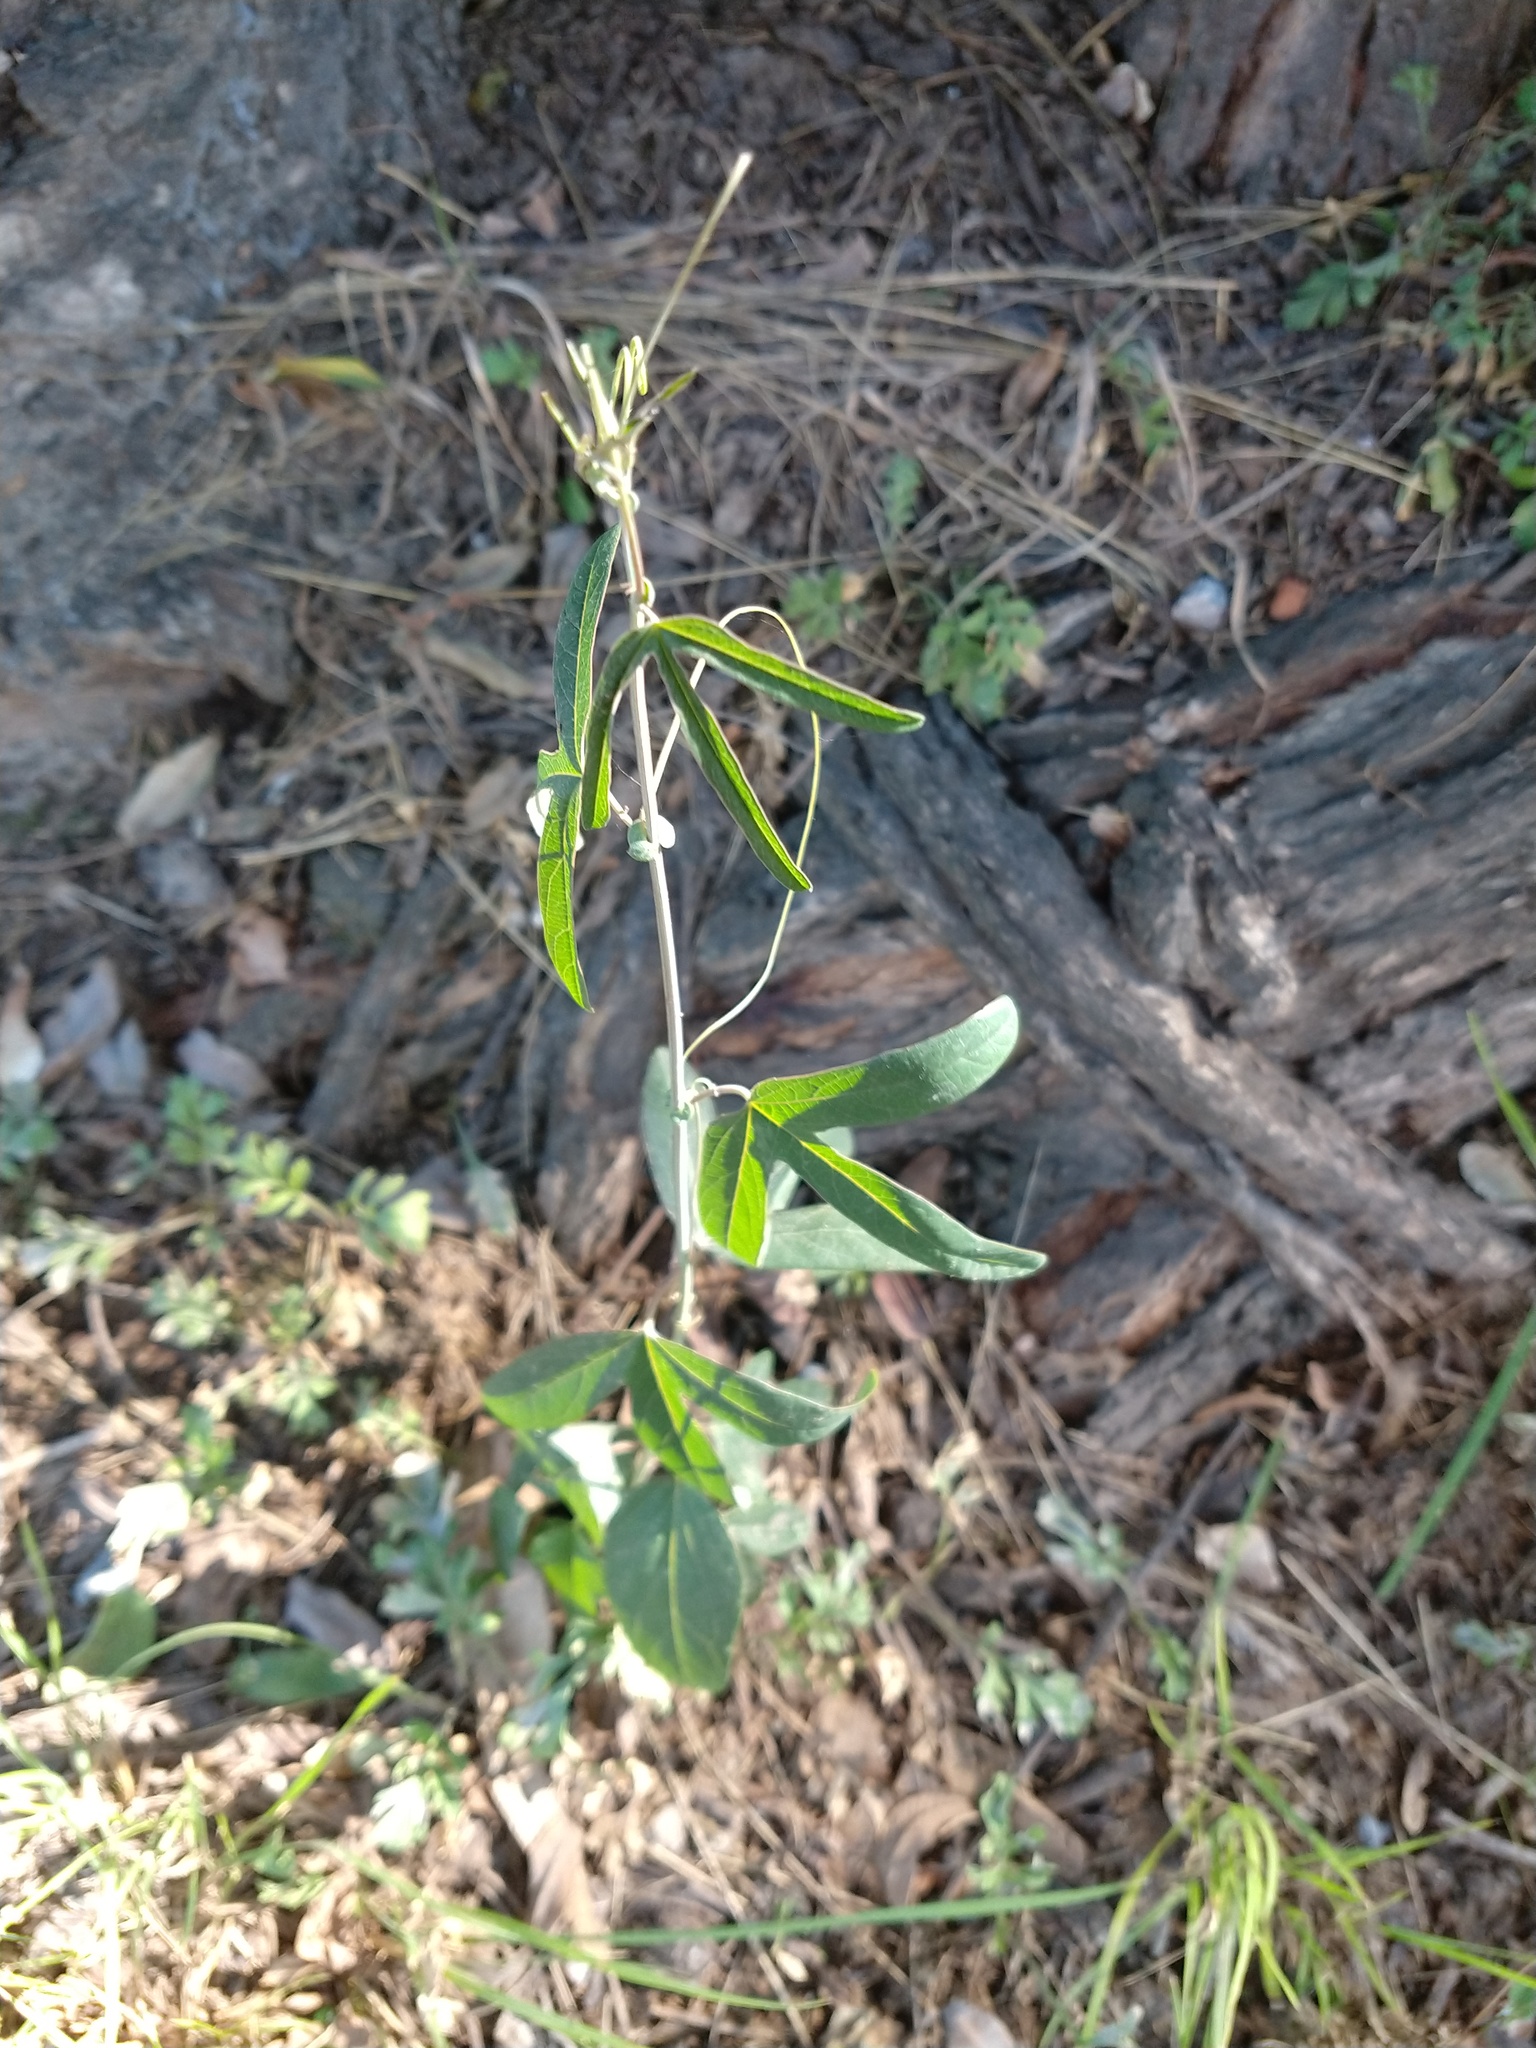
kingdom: Plantae
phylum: Tracheophyta
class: Magnoliopsida
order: Malpighiales
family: Passifloraceae
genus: Passiflora
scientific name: Passiflora caerulea
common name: Blue passionflower
